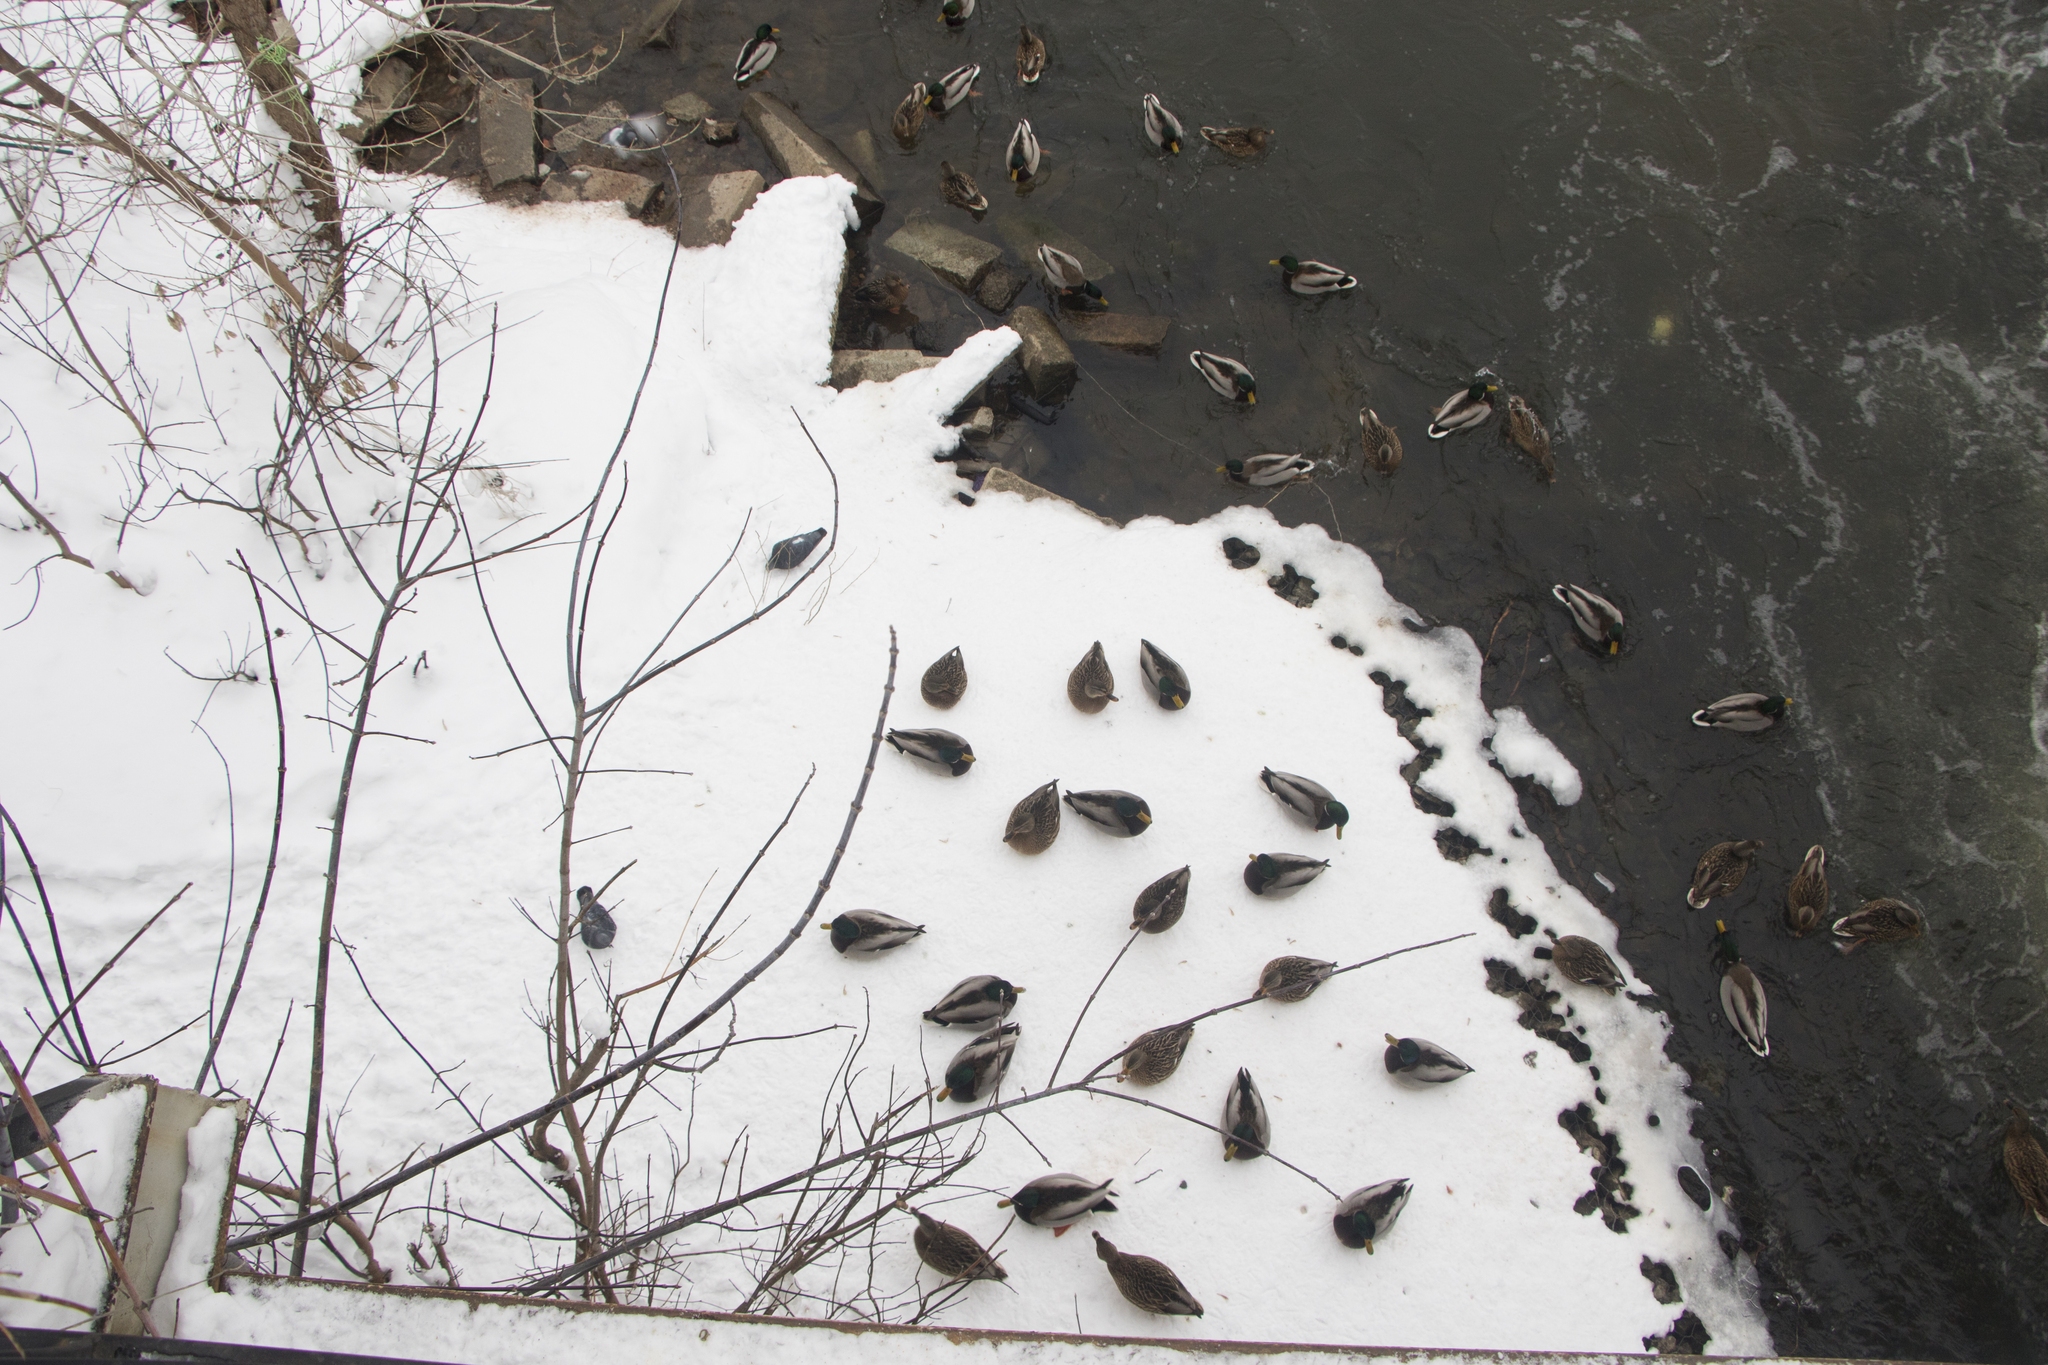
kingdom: Animalia
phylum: Chordata
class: Aves
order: Anseriformes
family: Anatidae
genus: Anas
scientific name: Anas platyrhynchos
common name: Mallard
